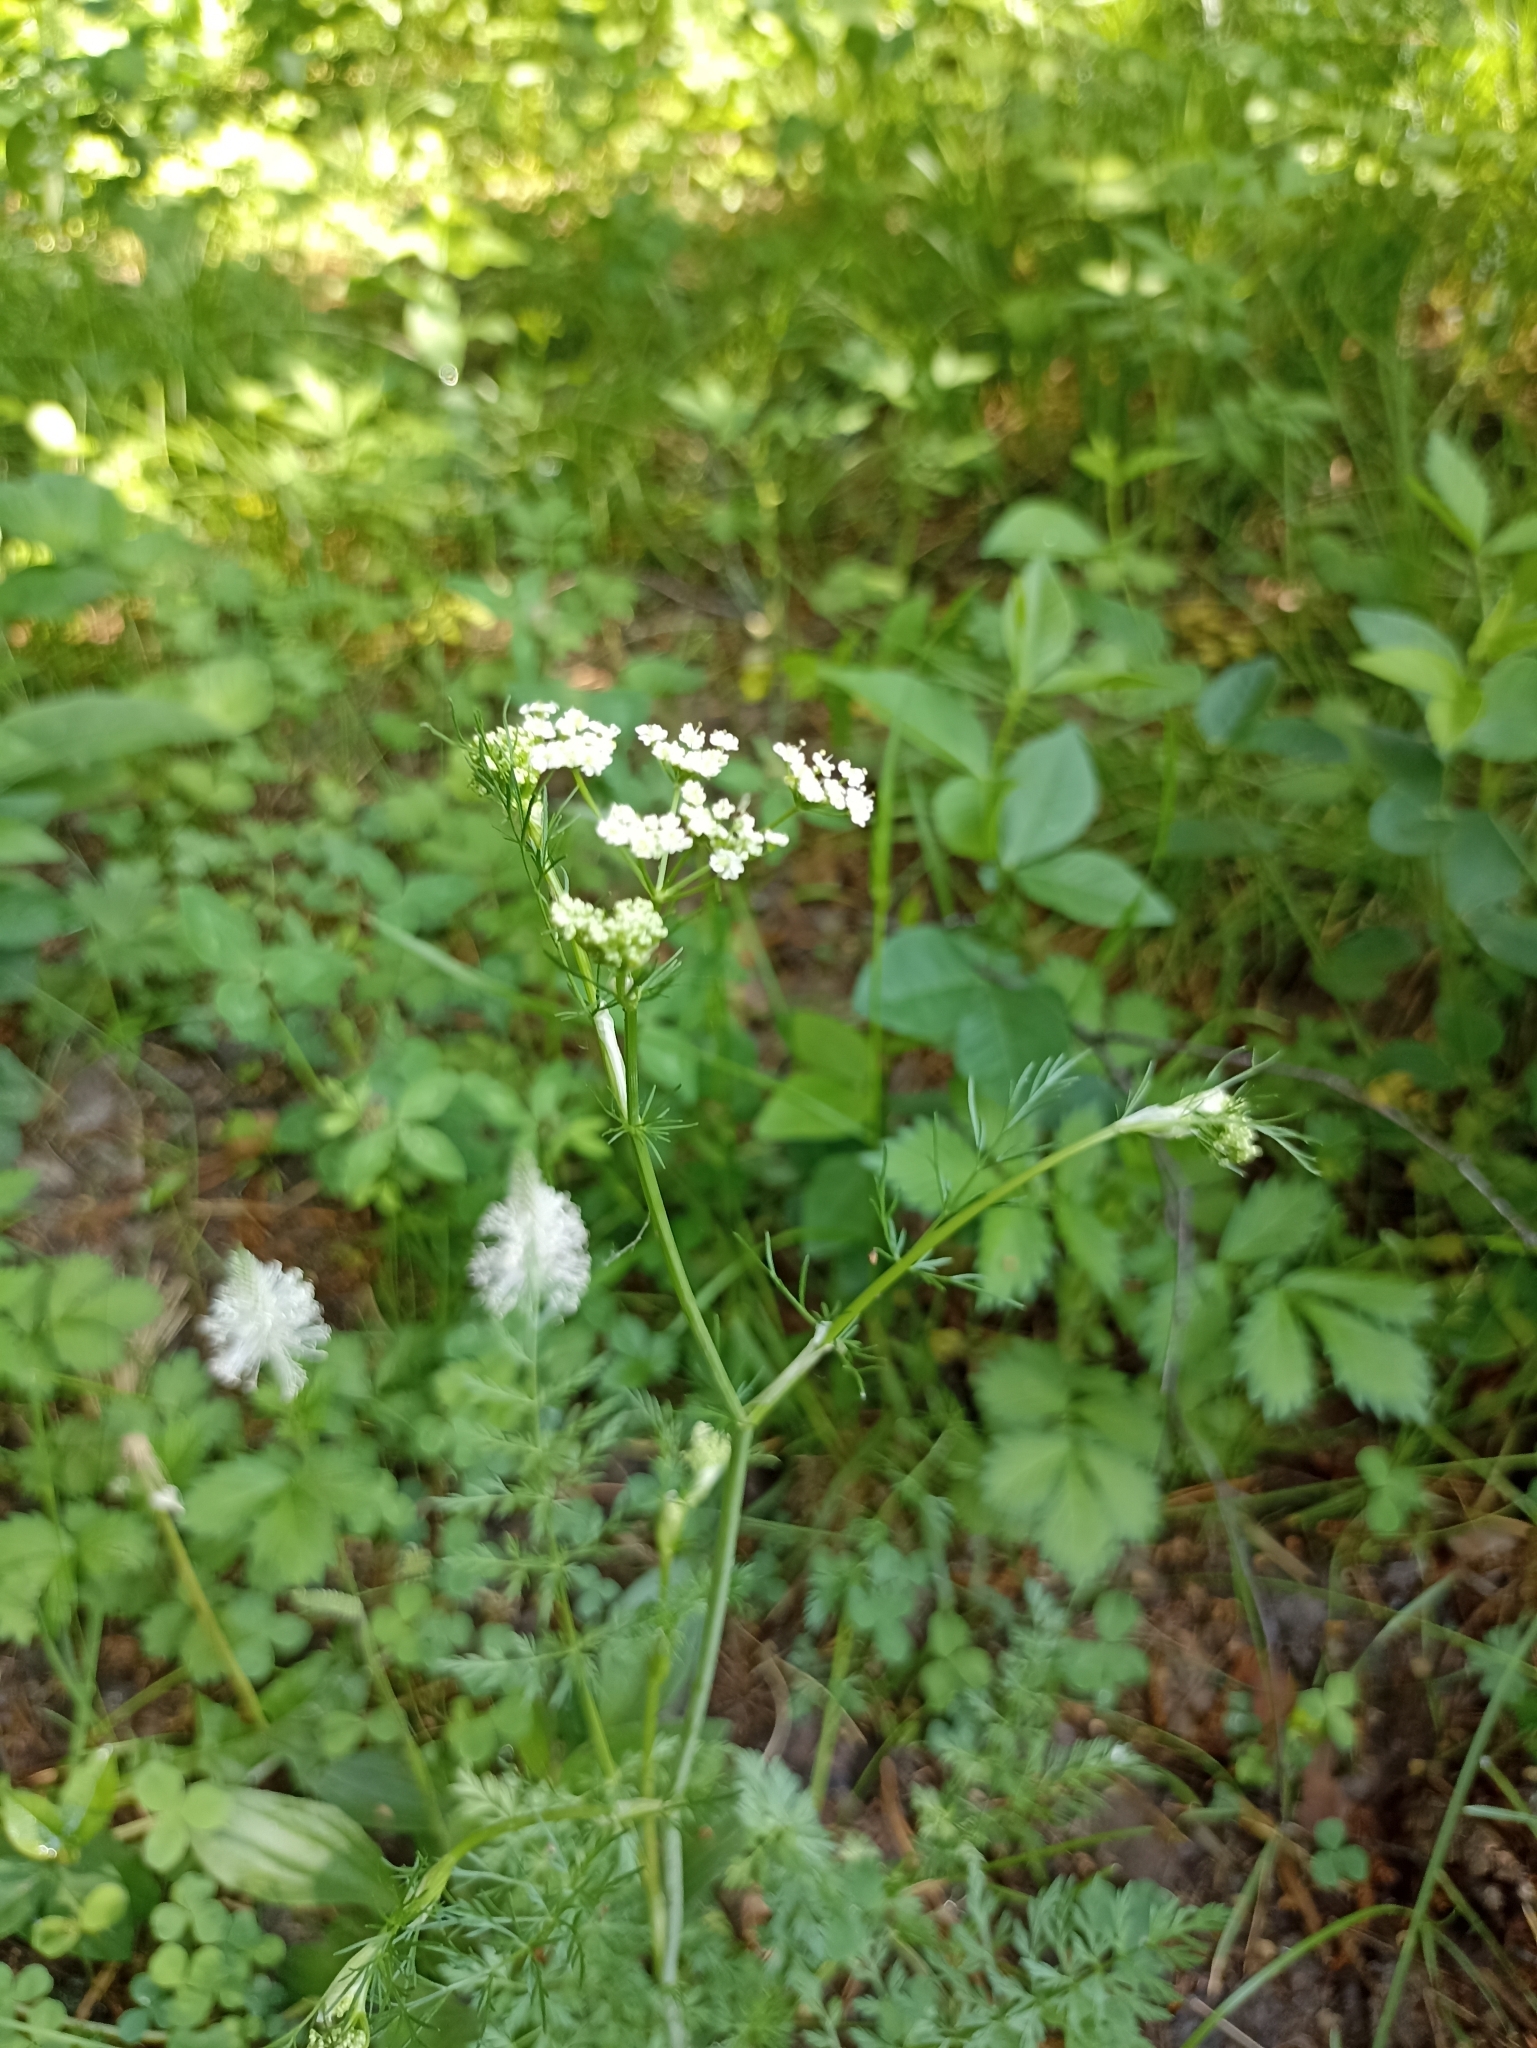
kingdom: Plantae
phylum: Tracheophyta
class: Magnoliopsida
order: Apiales
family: Apiaceae
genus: Carum
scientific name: Carum carvi
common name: Caraway
